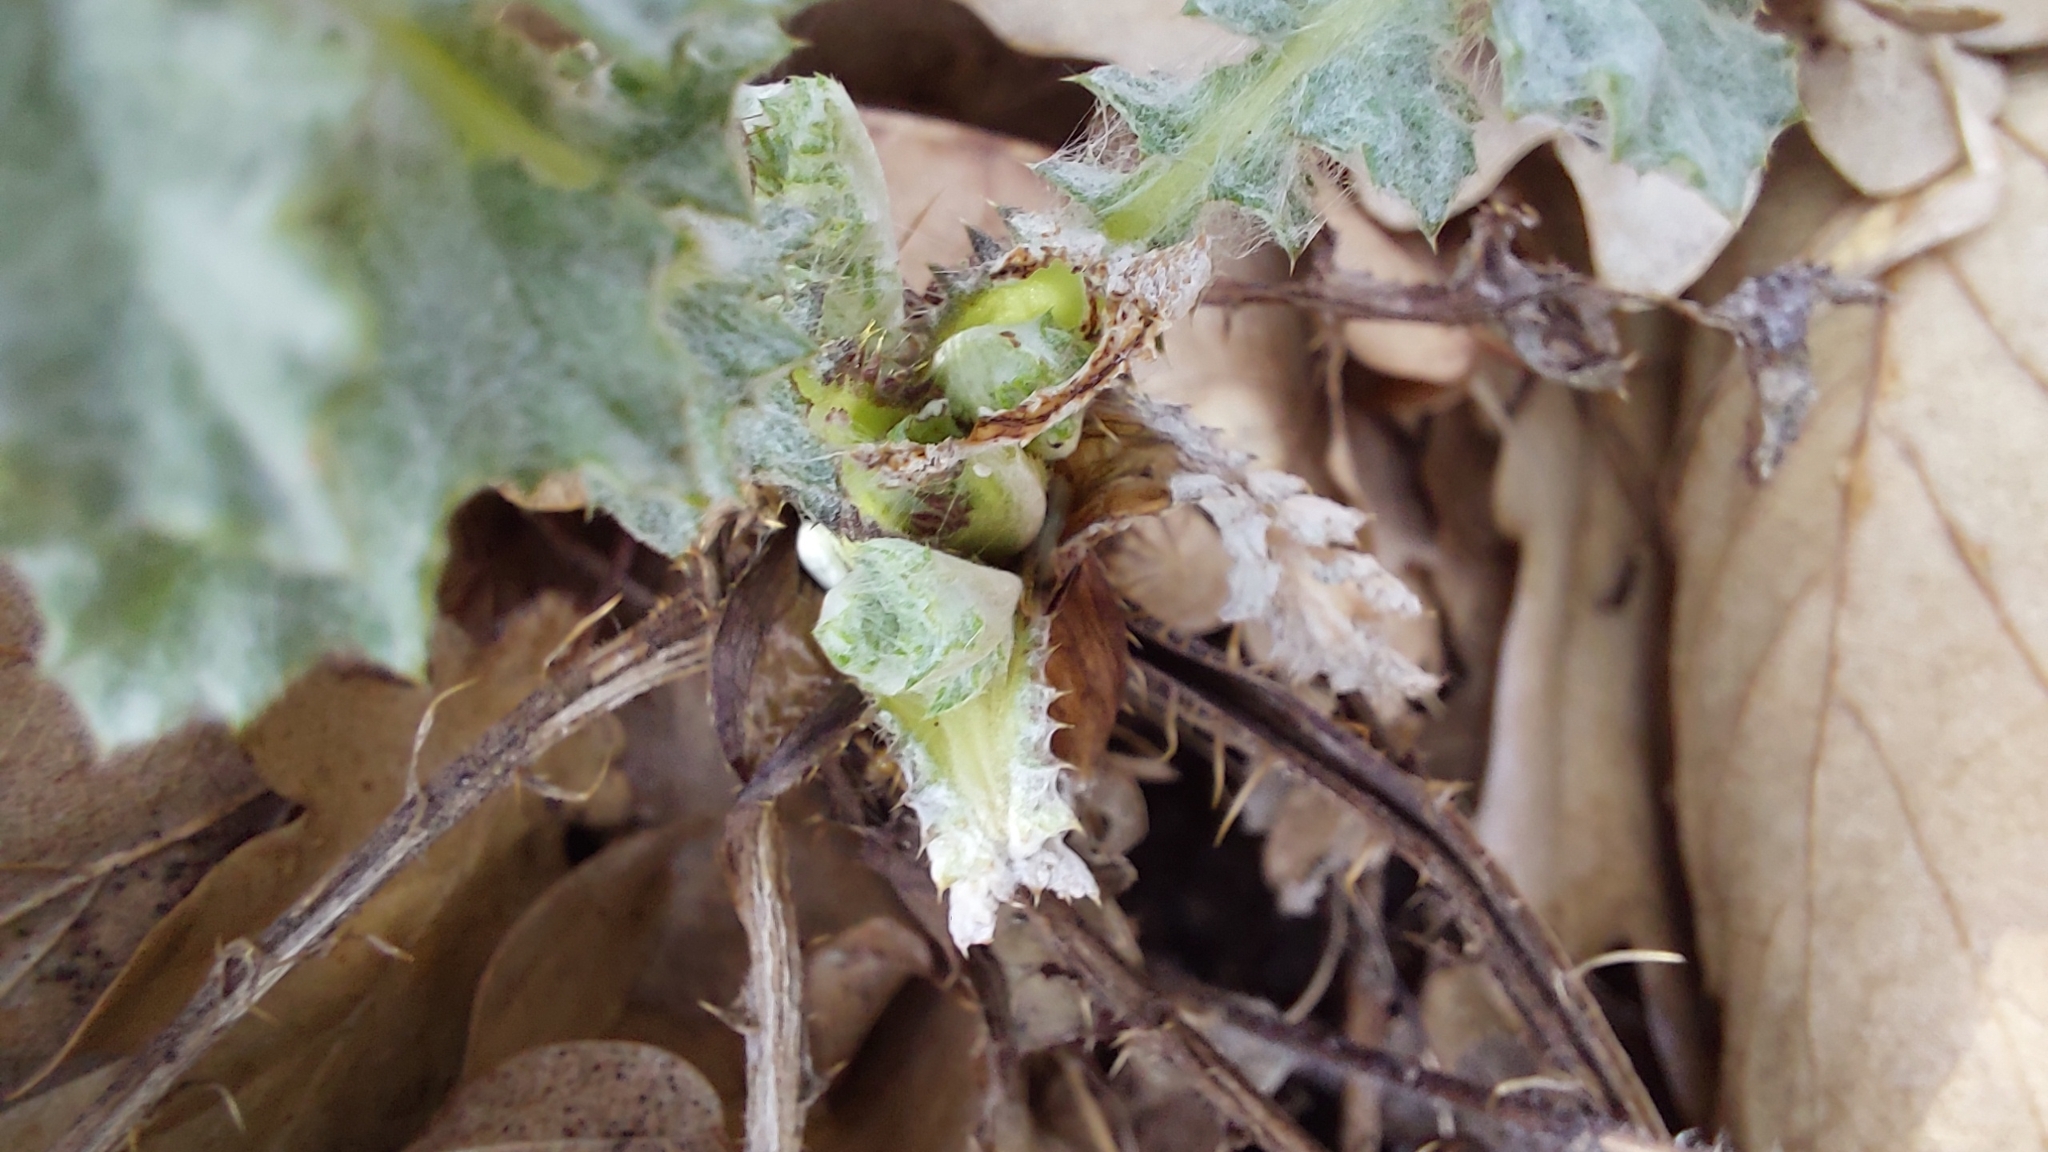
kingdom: Plantae
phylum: Tracheophyta
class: Magnoliopsida
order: Asterales
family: Asteraceae
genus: Onopordum
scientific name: Onopordum acanthium
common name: Scotch thistle
